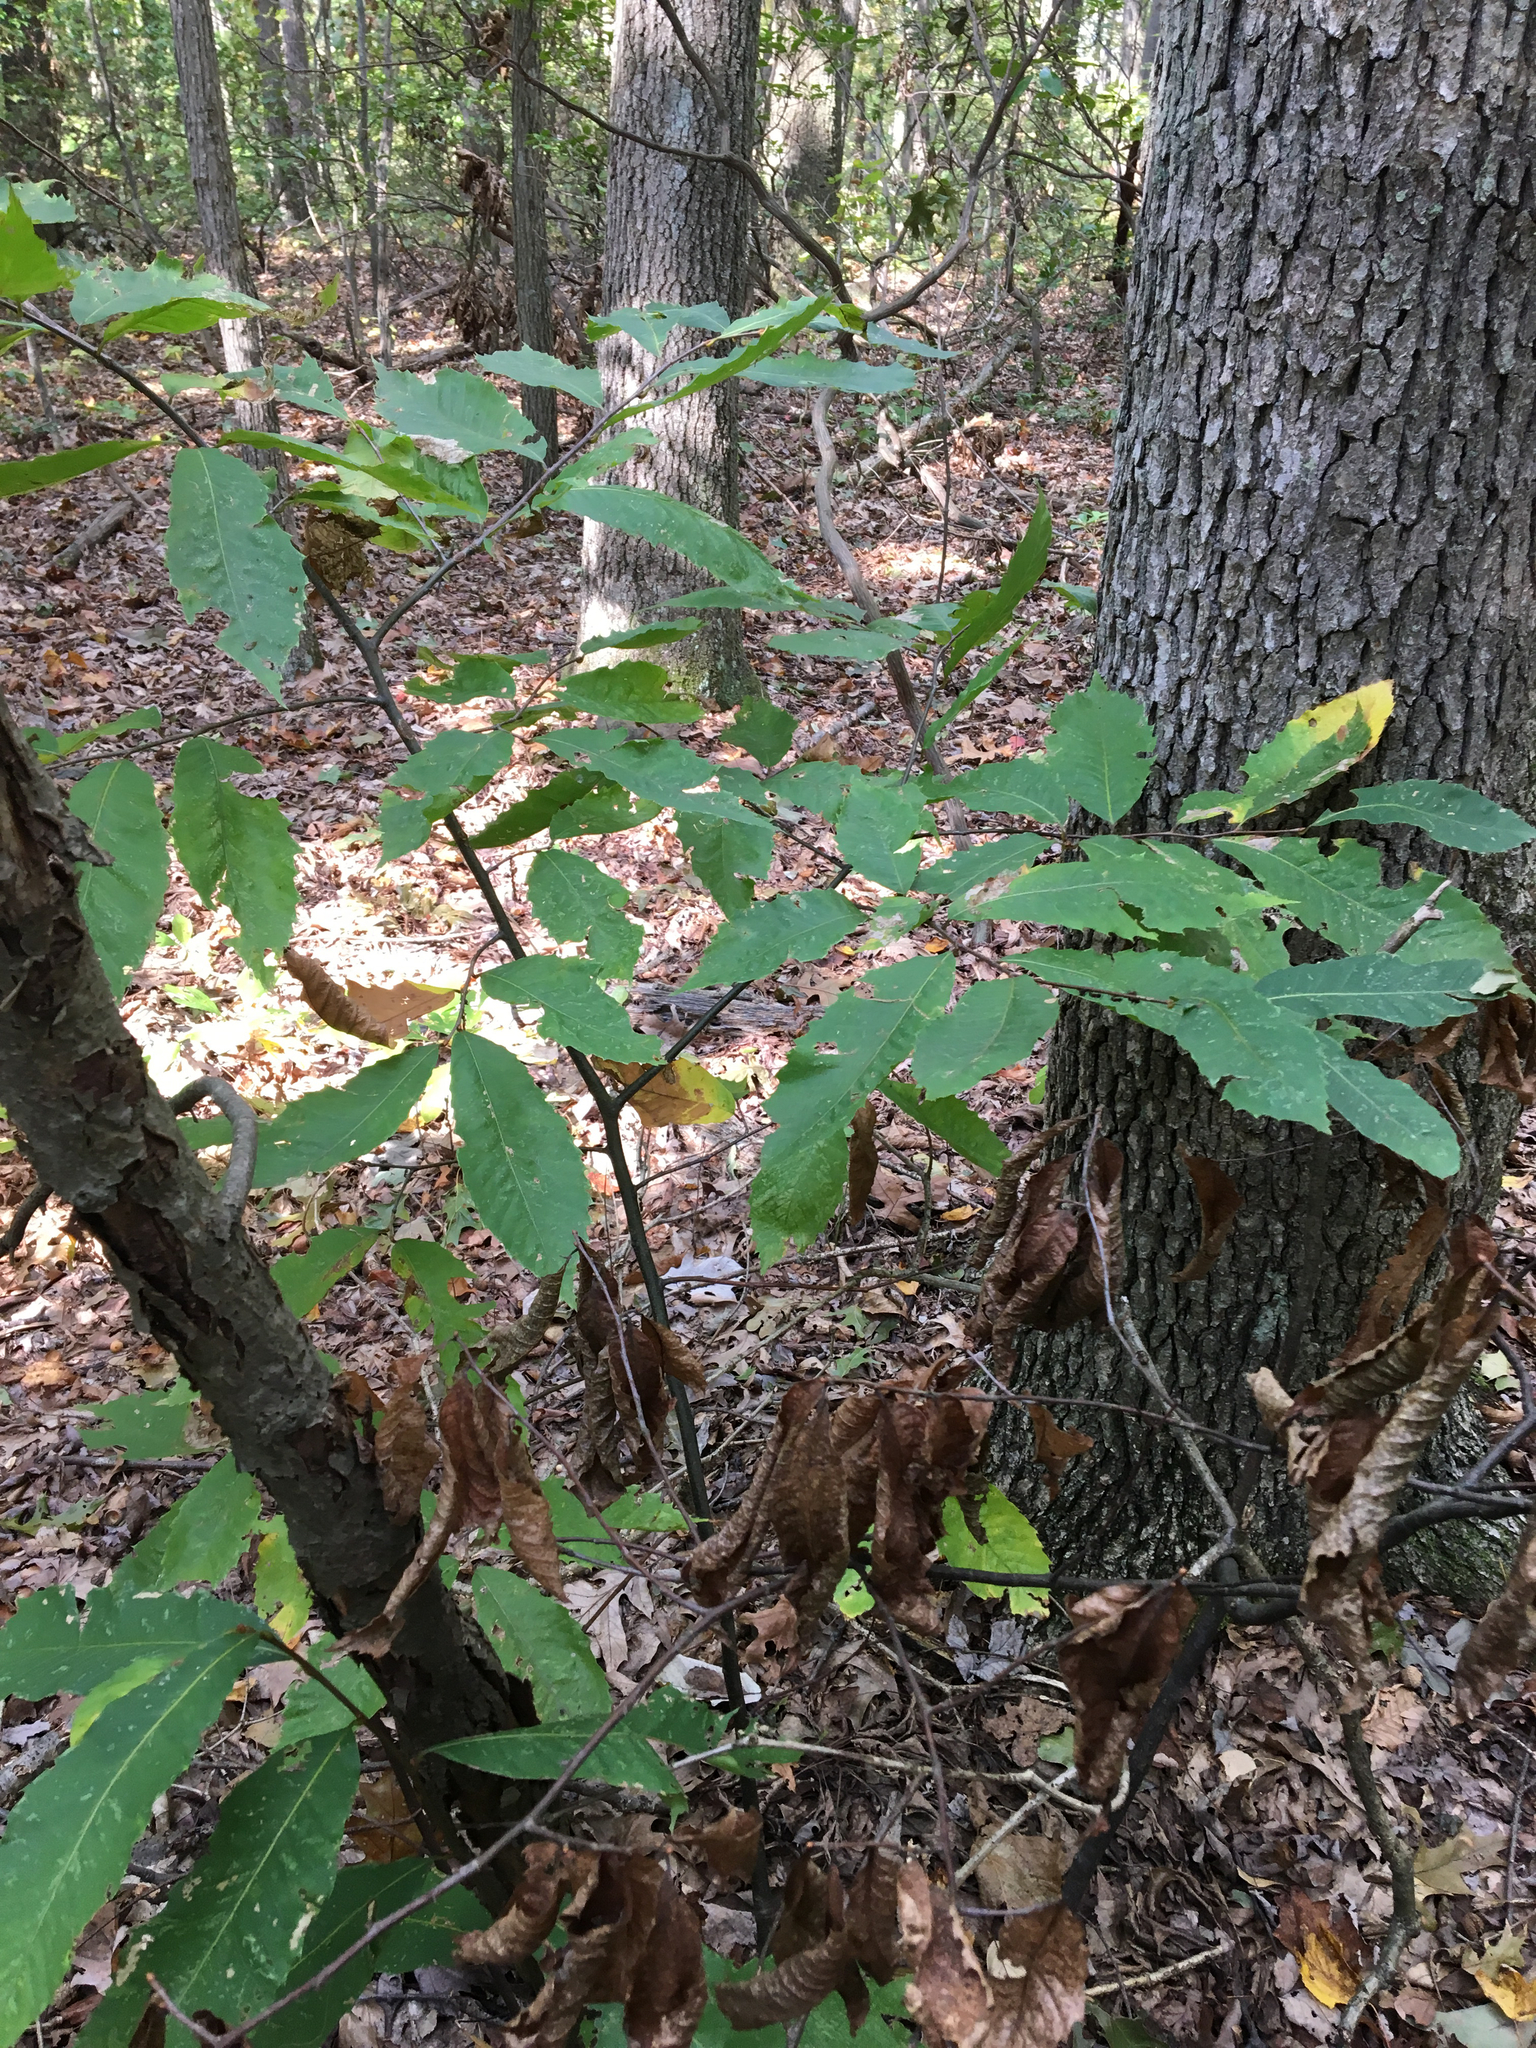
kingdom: Plantae
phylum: Tracheophyta
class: Magnoliopsida
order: Fagales
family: Fagaceae
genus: Castanea
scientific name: Castanea dentata
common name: American chestnut
